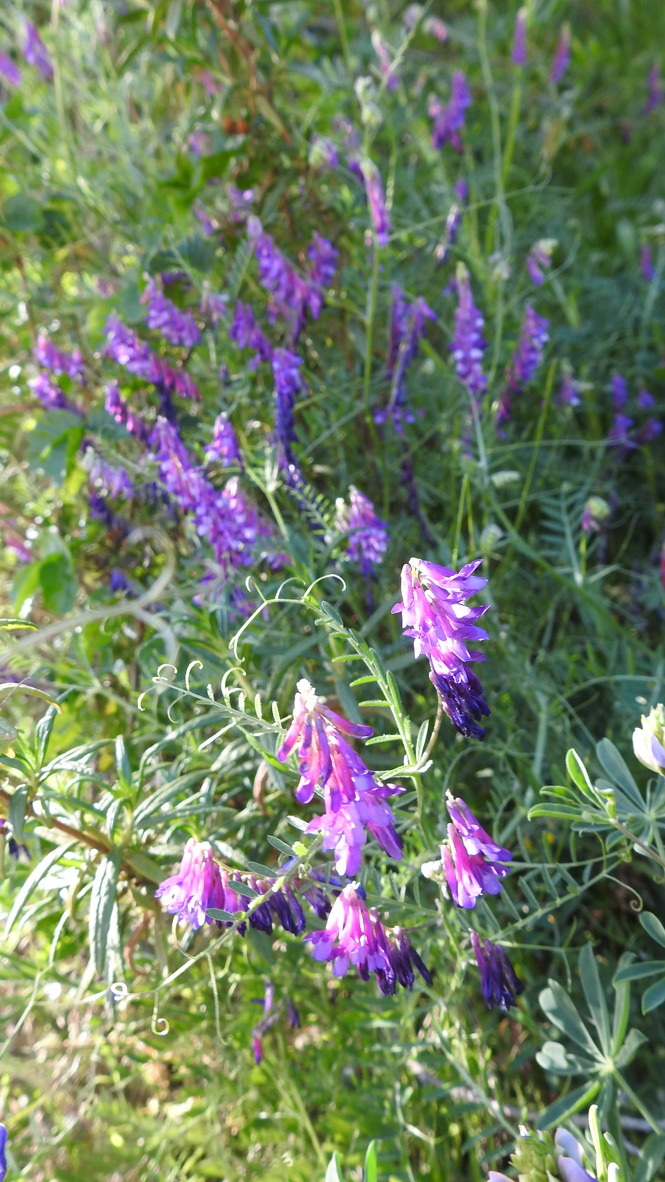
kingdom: Plantae
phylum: Tracheophyta
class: Magnoliopsida
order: Fabales
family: Fabaceae
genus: Vicia
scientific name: Vicia villosa
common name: Fodder vetch
